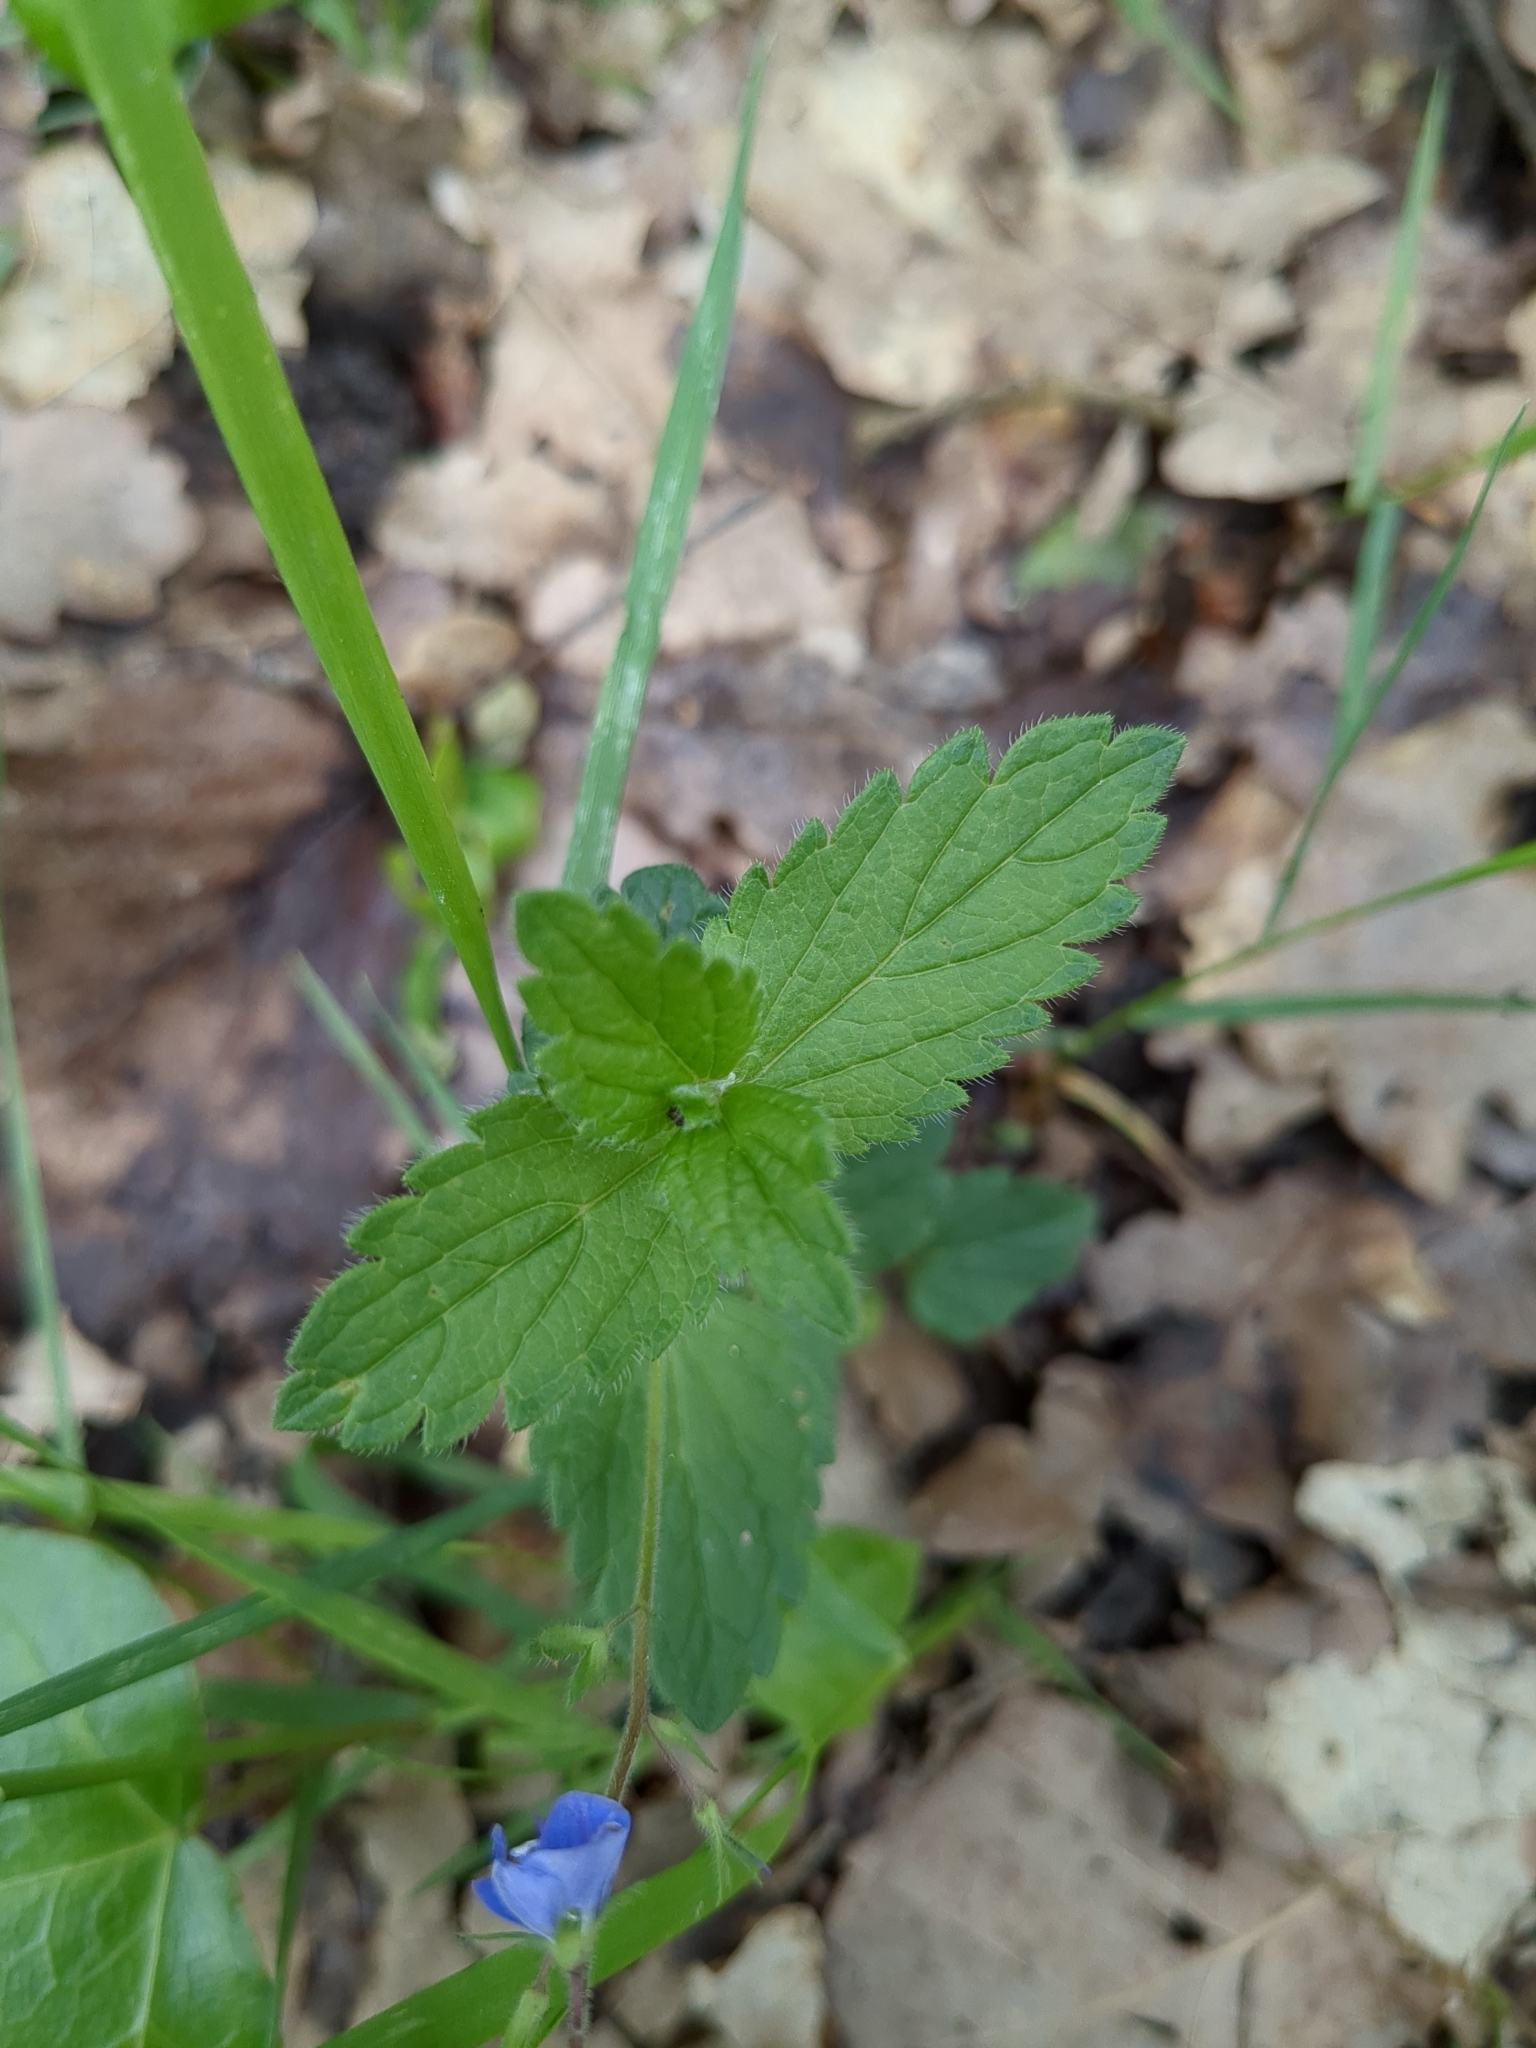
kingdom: Plantae
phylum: Tracheophyta
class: Magnoliopsida
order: Lamiales
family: Plantaginaceae
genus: Veronica
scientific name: Veronica chamaedrys
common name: Germander speedwell
